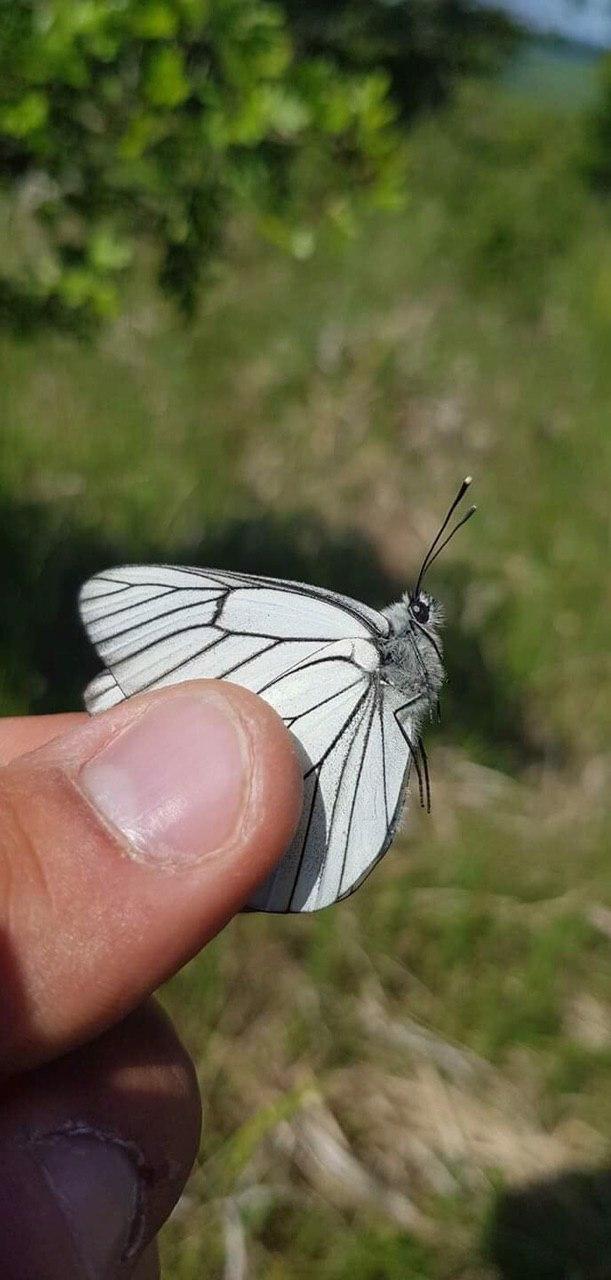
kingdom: Animalia
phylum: Arthropoda
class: Insecta
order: Lepidoptera
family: Pieridae
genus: Aporia
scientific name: Aporia crataegi
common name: Black-veined white
